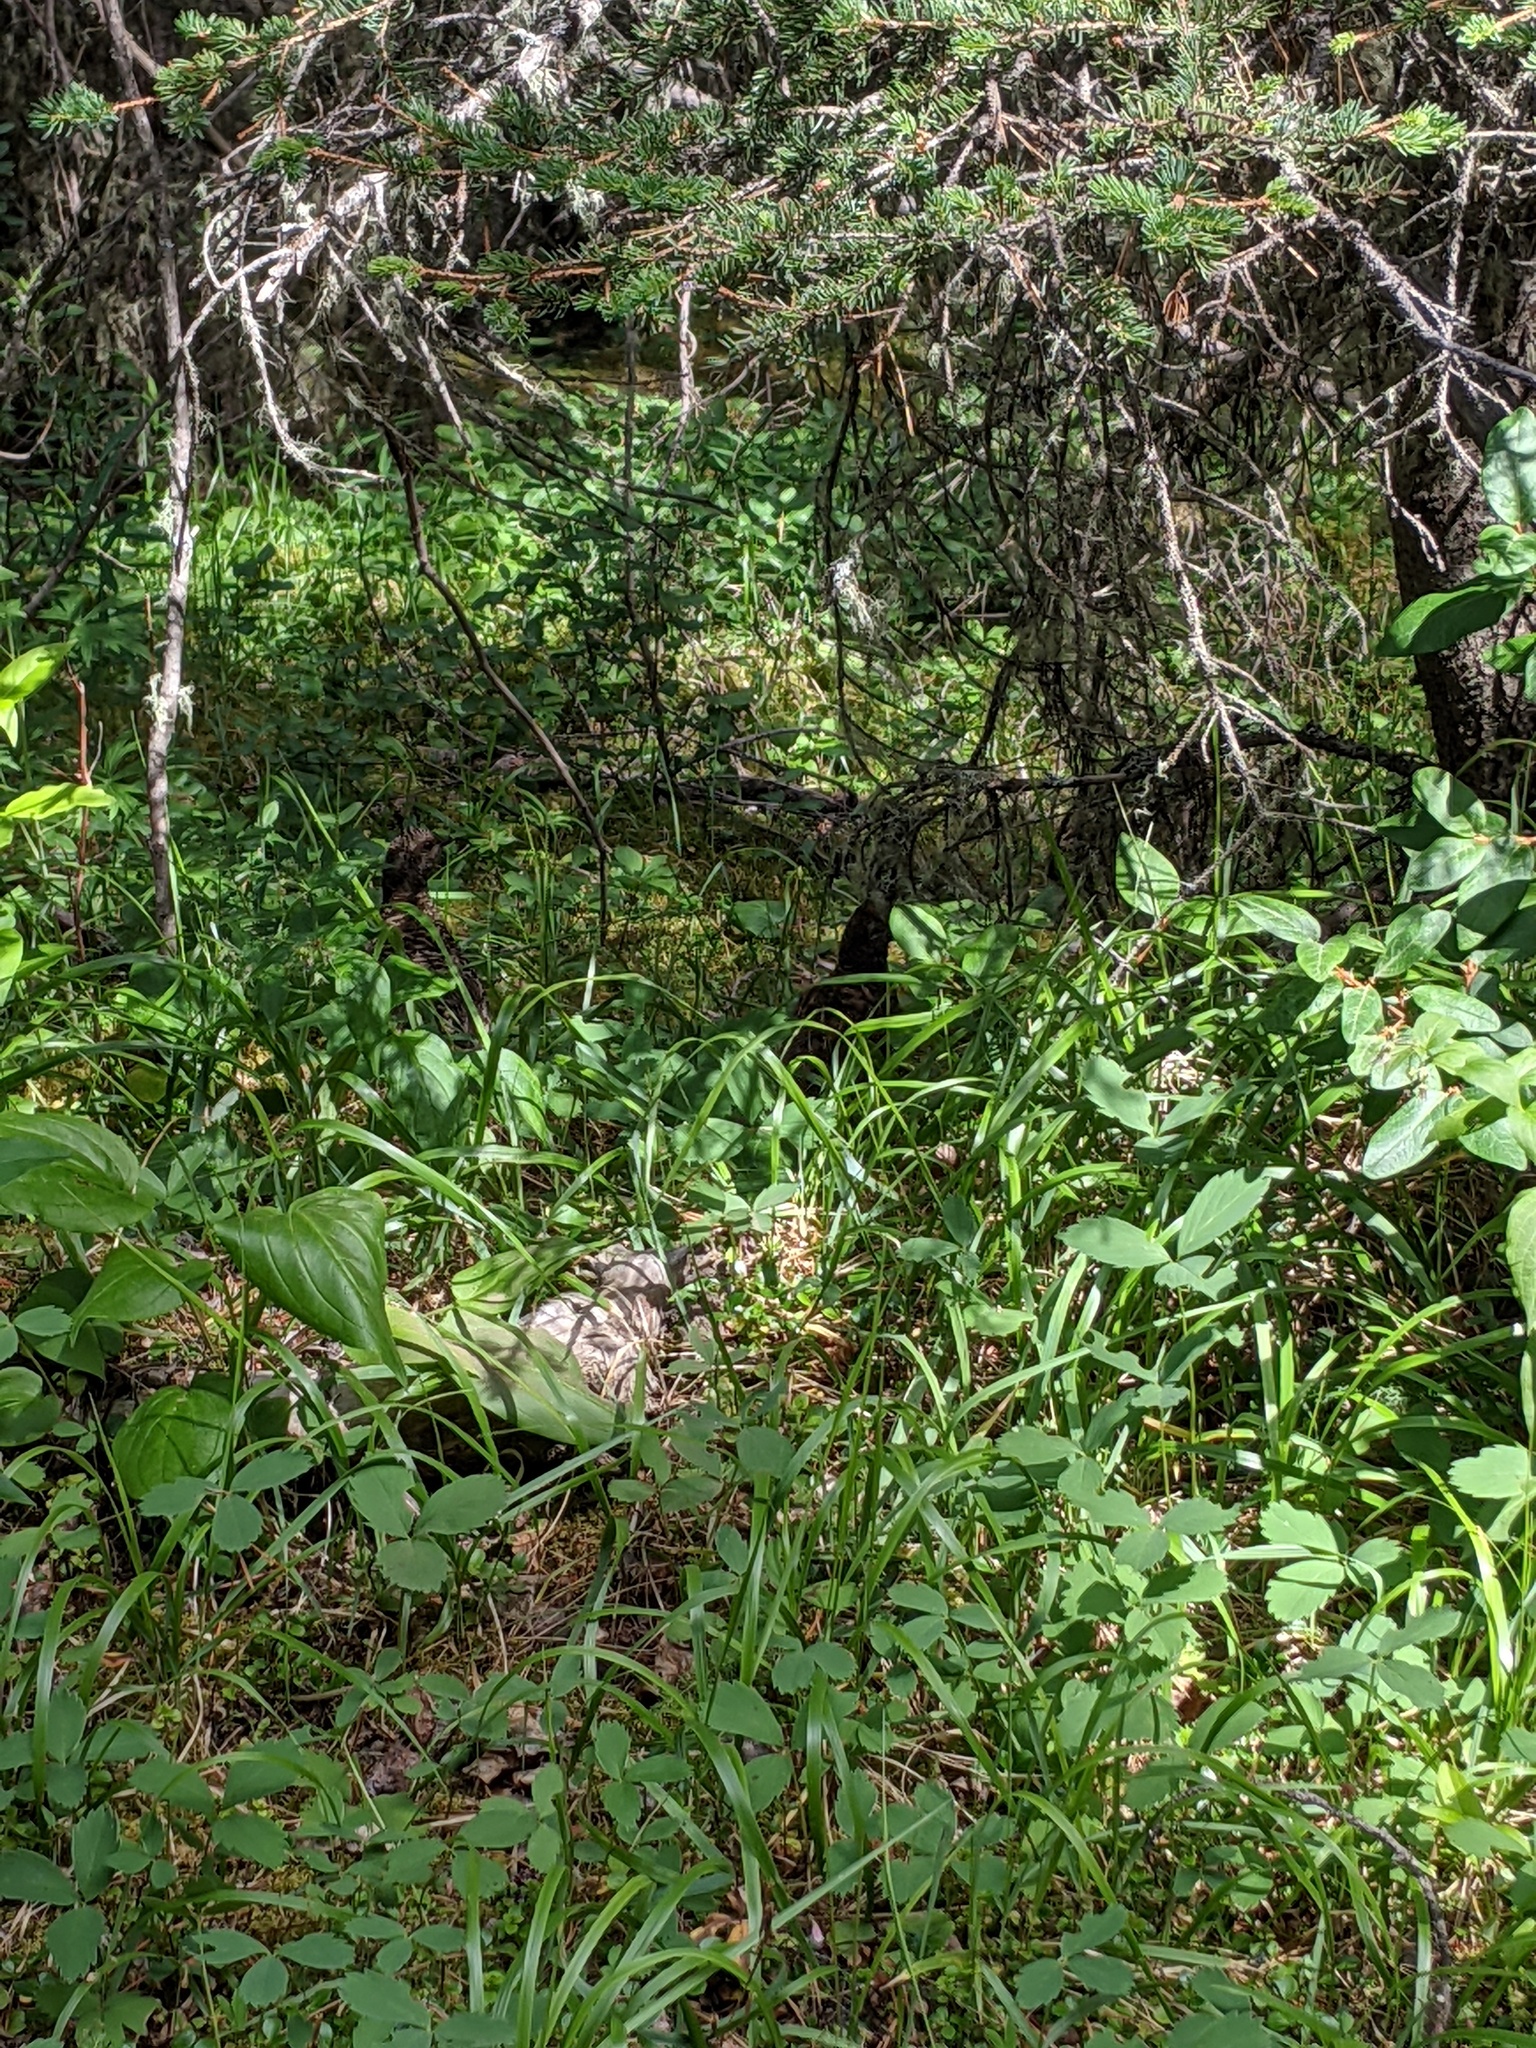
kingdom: Animalia
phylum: Chordata
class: Aves
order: Galliformes
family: Phasianidae
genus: Canachites
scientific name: Canachites canadensis
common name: Spruce grouse
